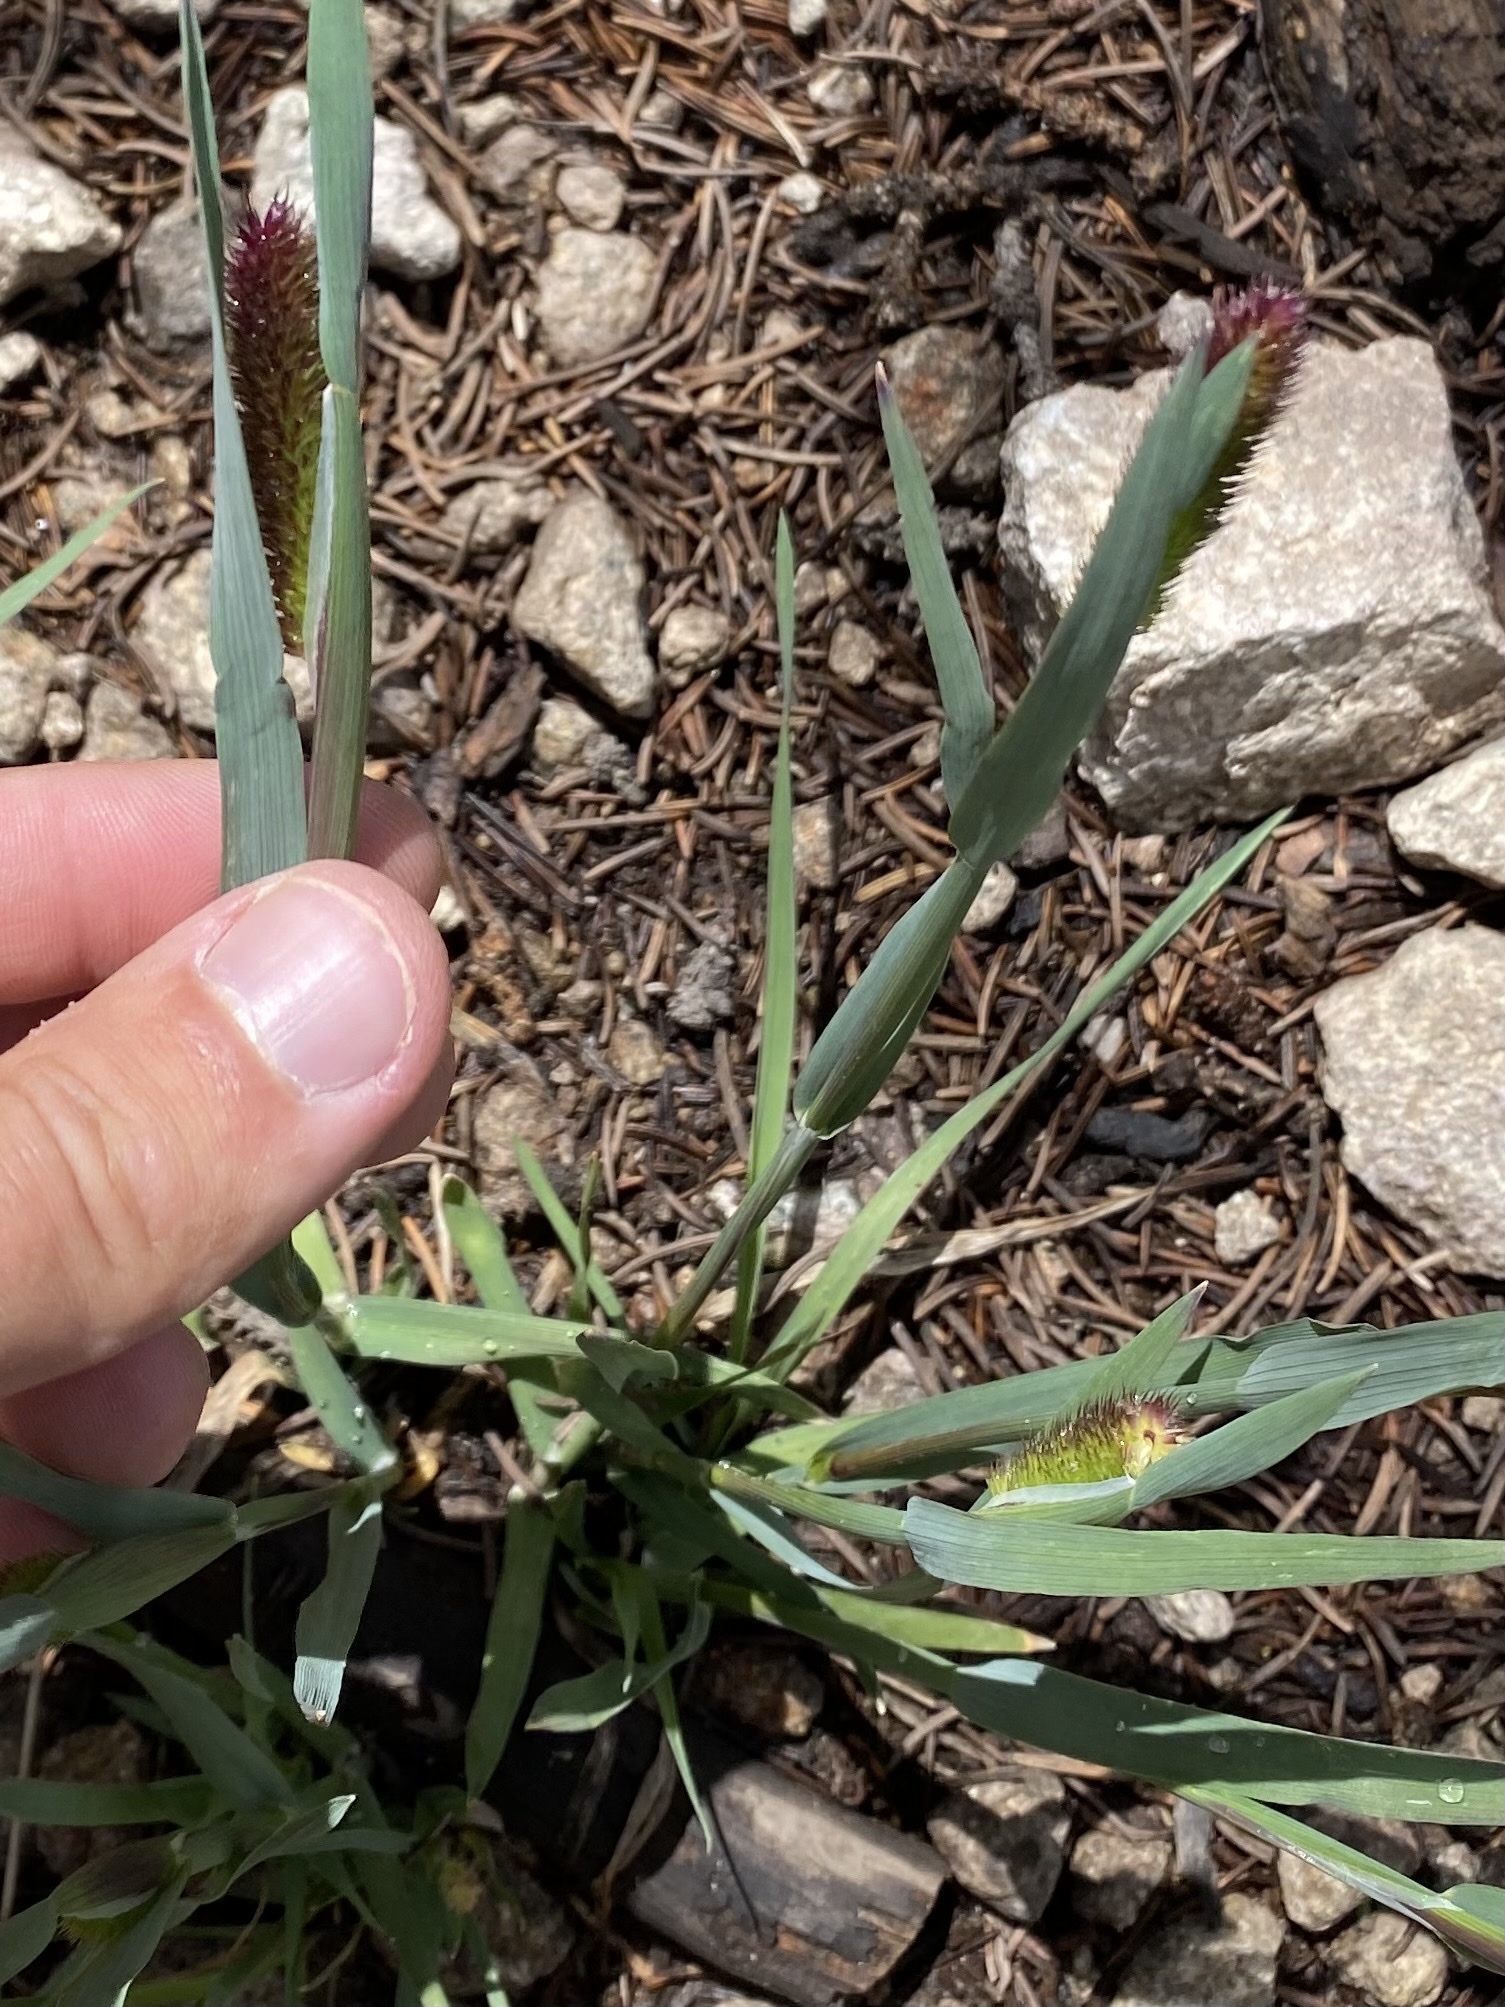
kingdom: Plantae
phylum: Tracheophyta
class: Liliopsida
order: Poales
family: Poaceae
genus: Phleum
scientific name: Phleum alpinum
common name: Alpine cat's-tail
